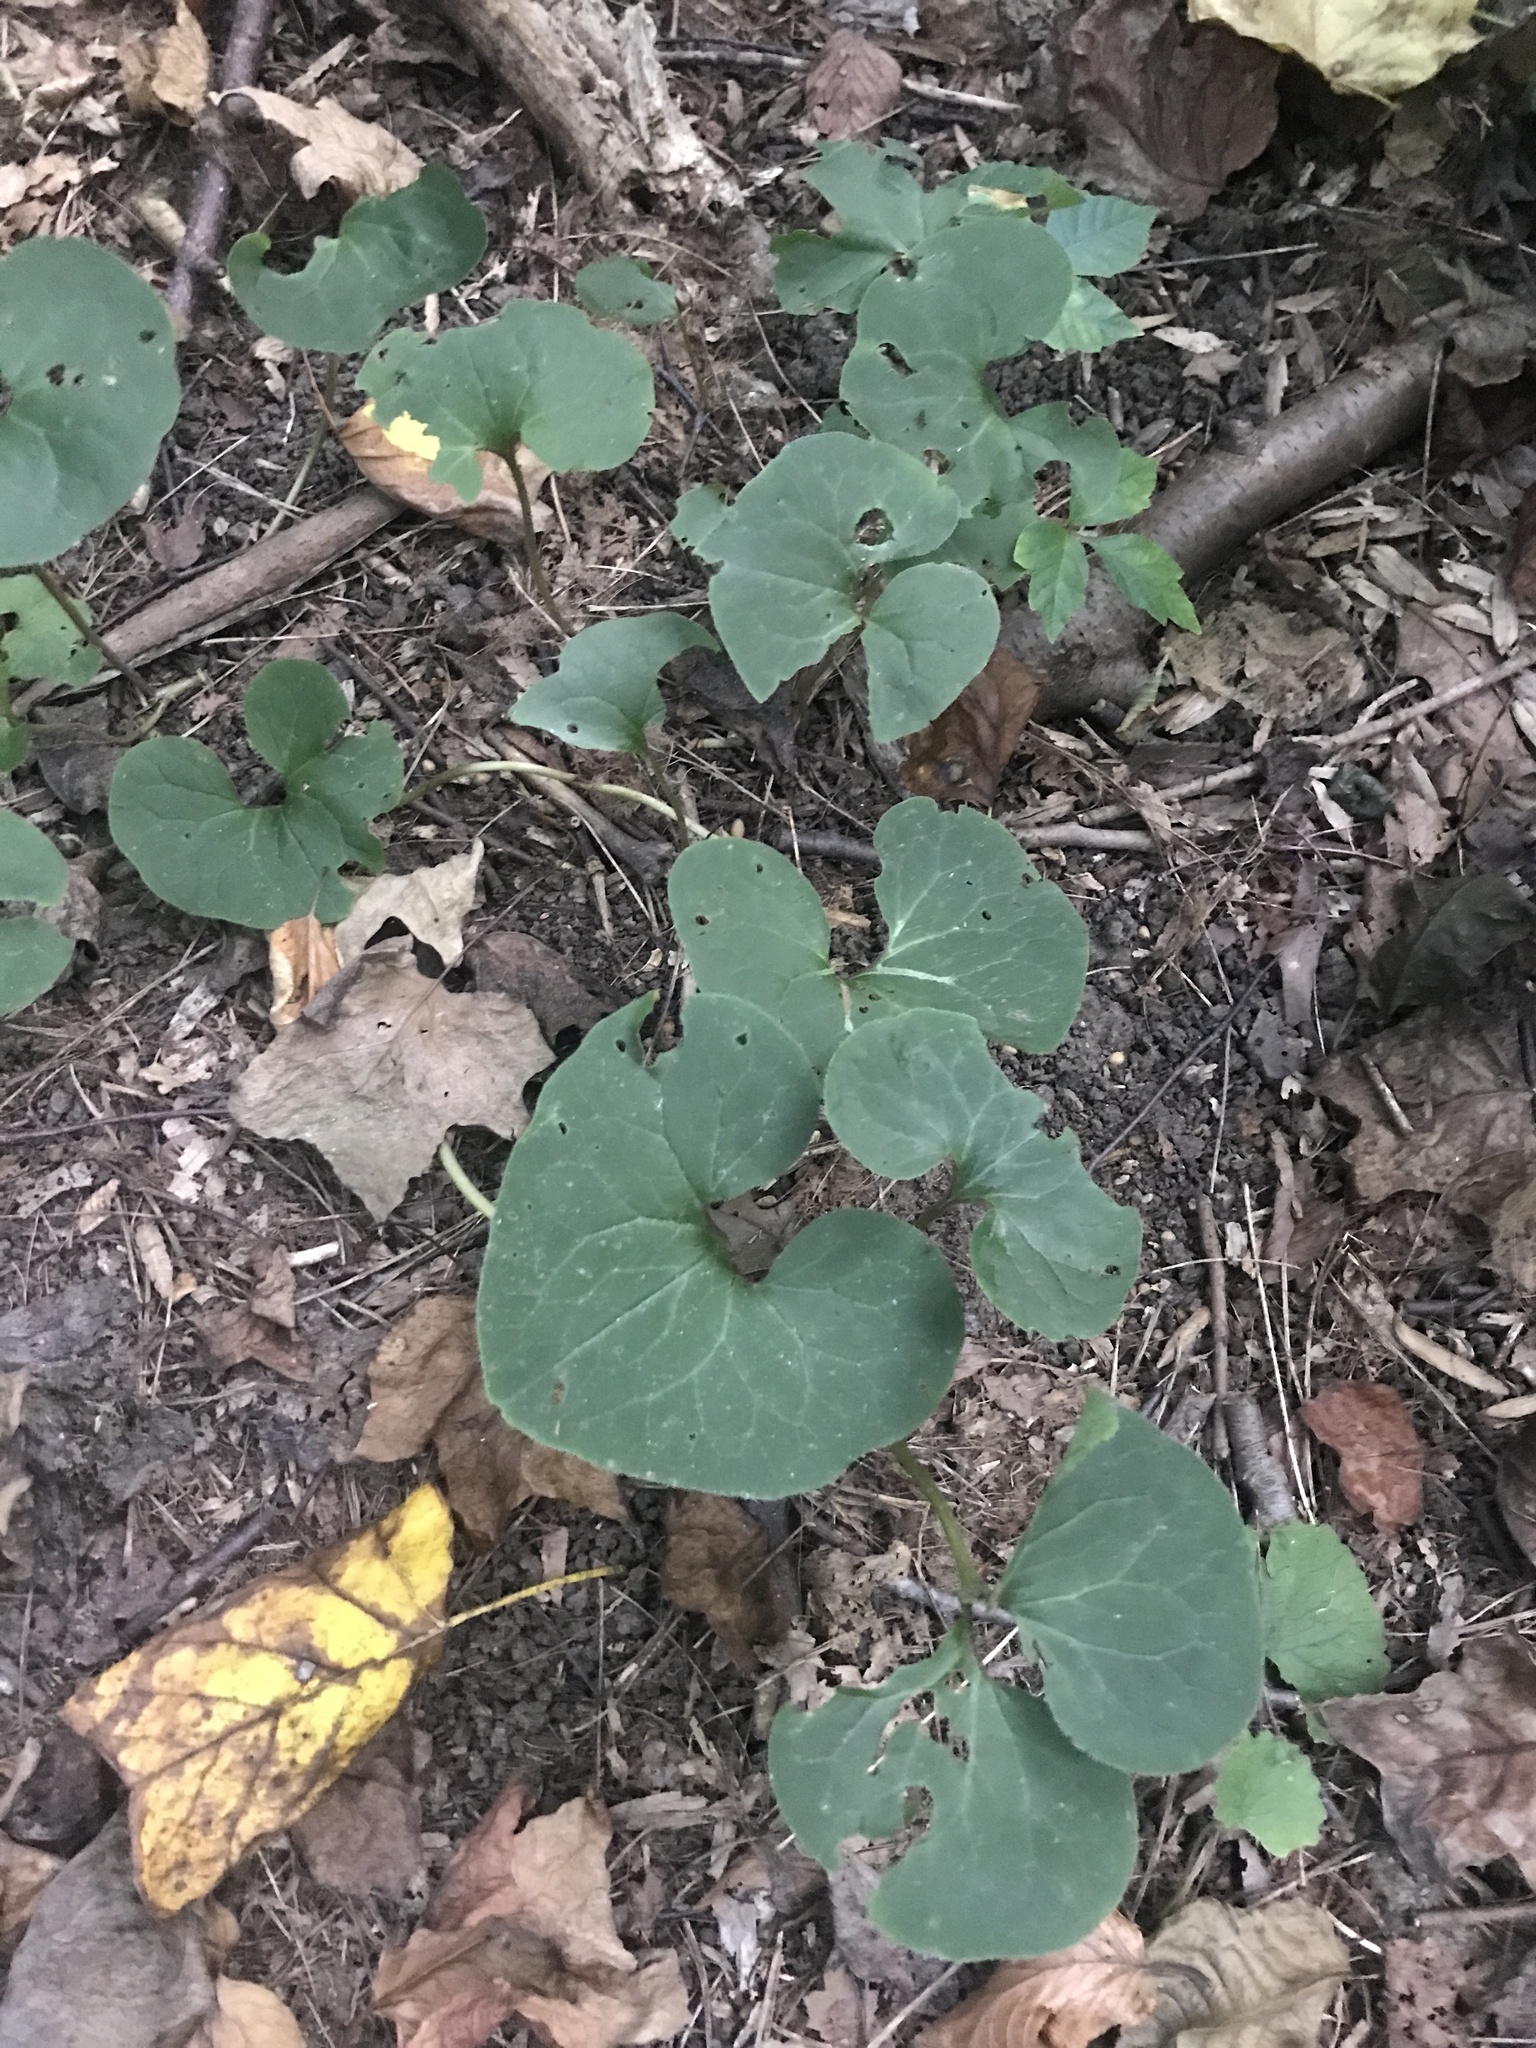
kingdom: Plantae
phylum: Tracheophyta
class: Magnoliopsida
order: Piperales
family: Aristolochiaceae
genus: Asarum
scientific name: Asarum canadense
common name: Wild ginger
